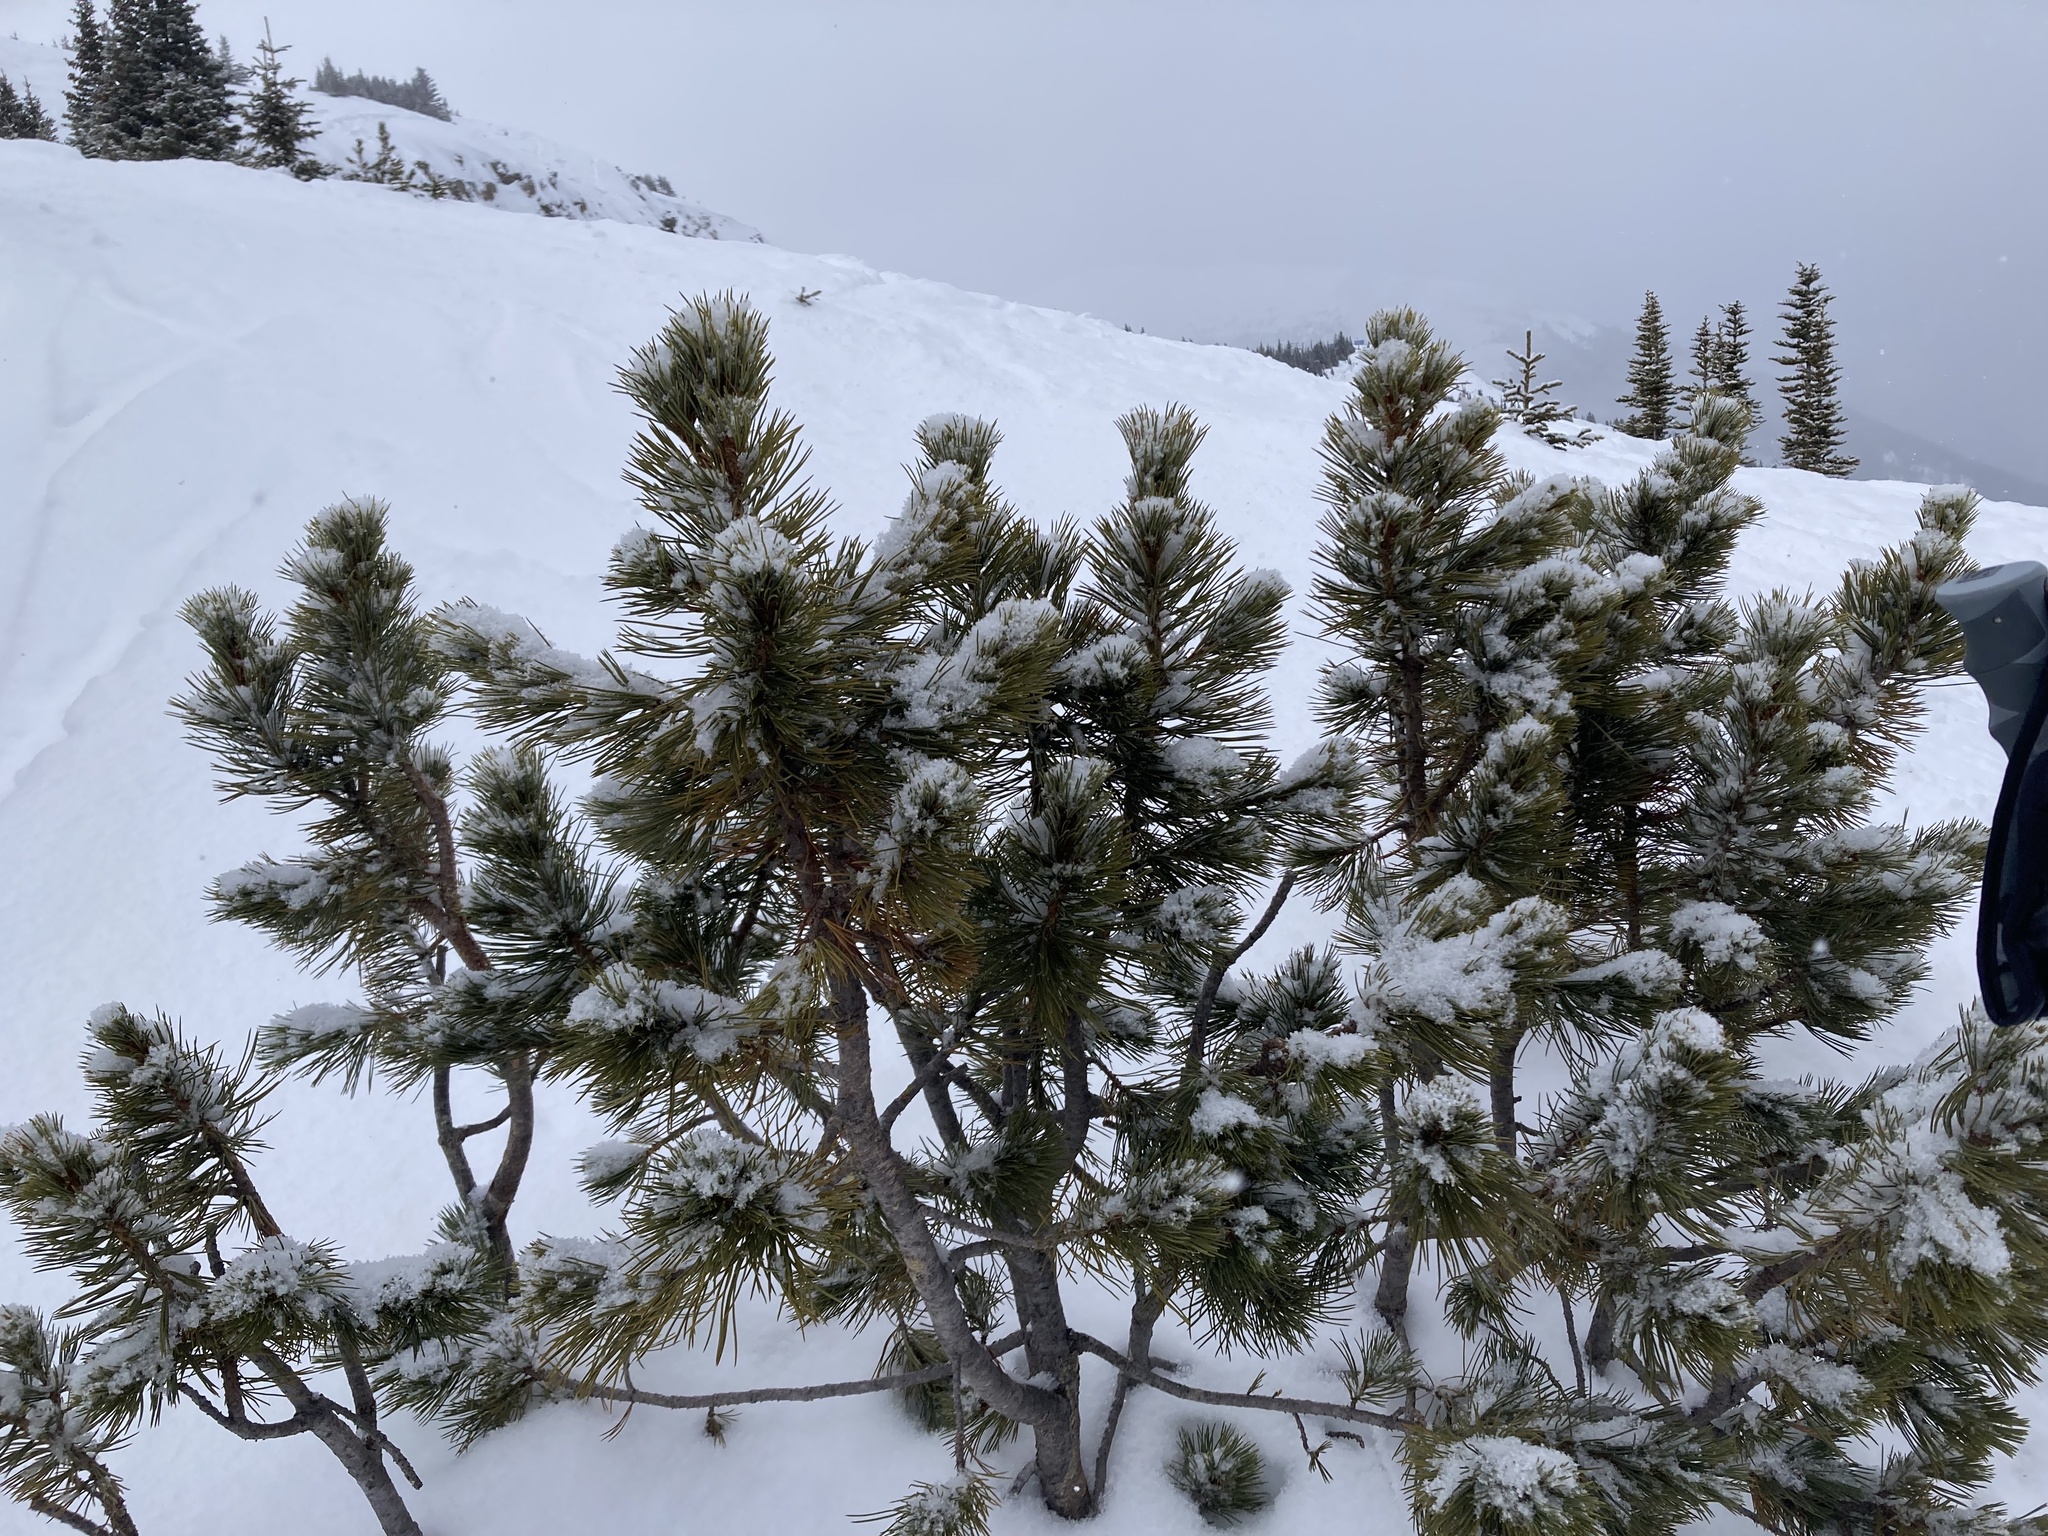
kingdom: Plantae
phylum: Tracheophyta
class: Pinopsida
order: Pinales
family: Pinaceae
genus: Pinus
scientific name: Pinus albicaulis
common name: Whitebark pine
